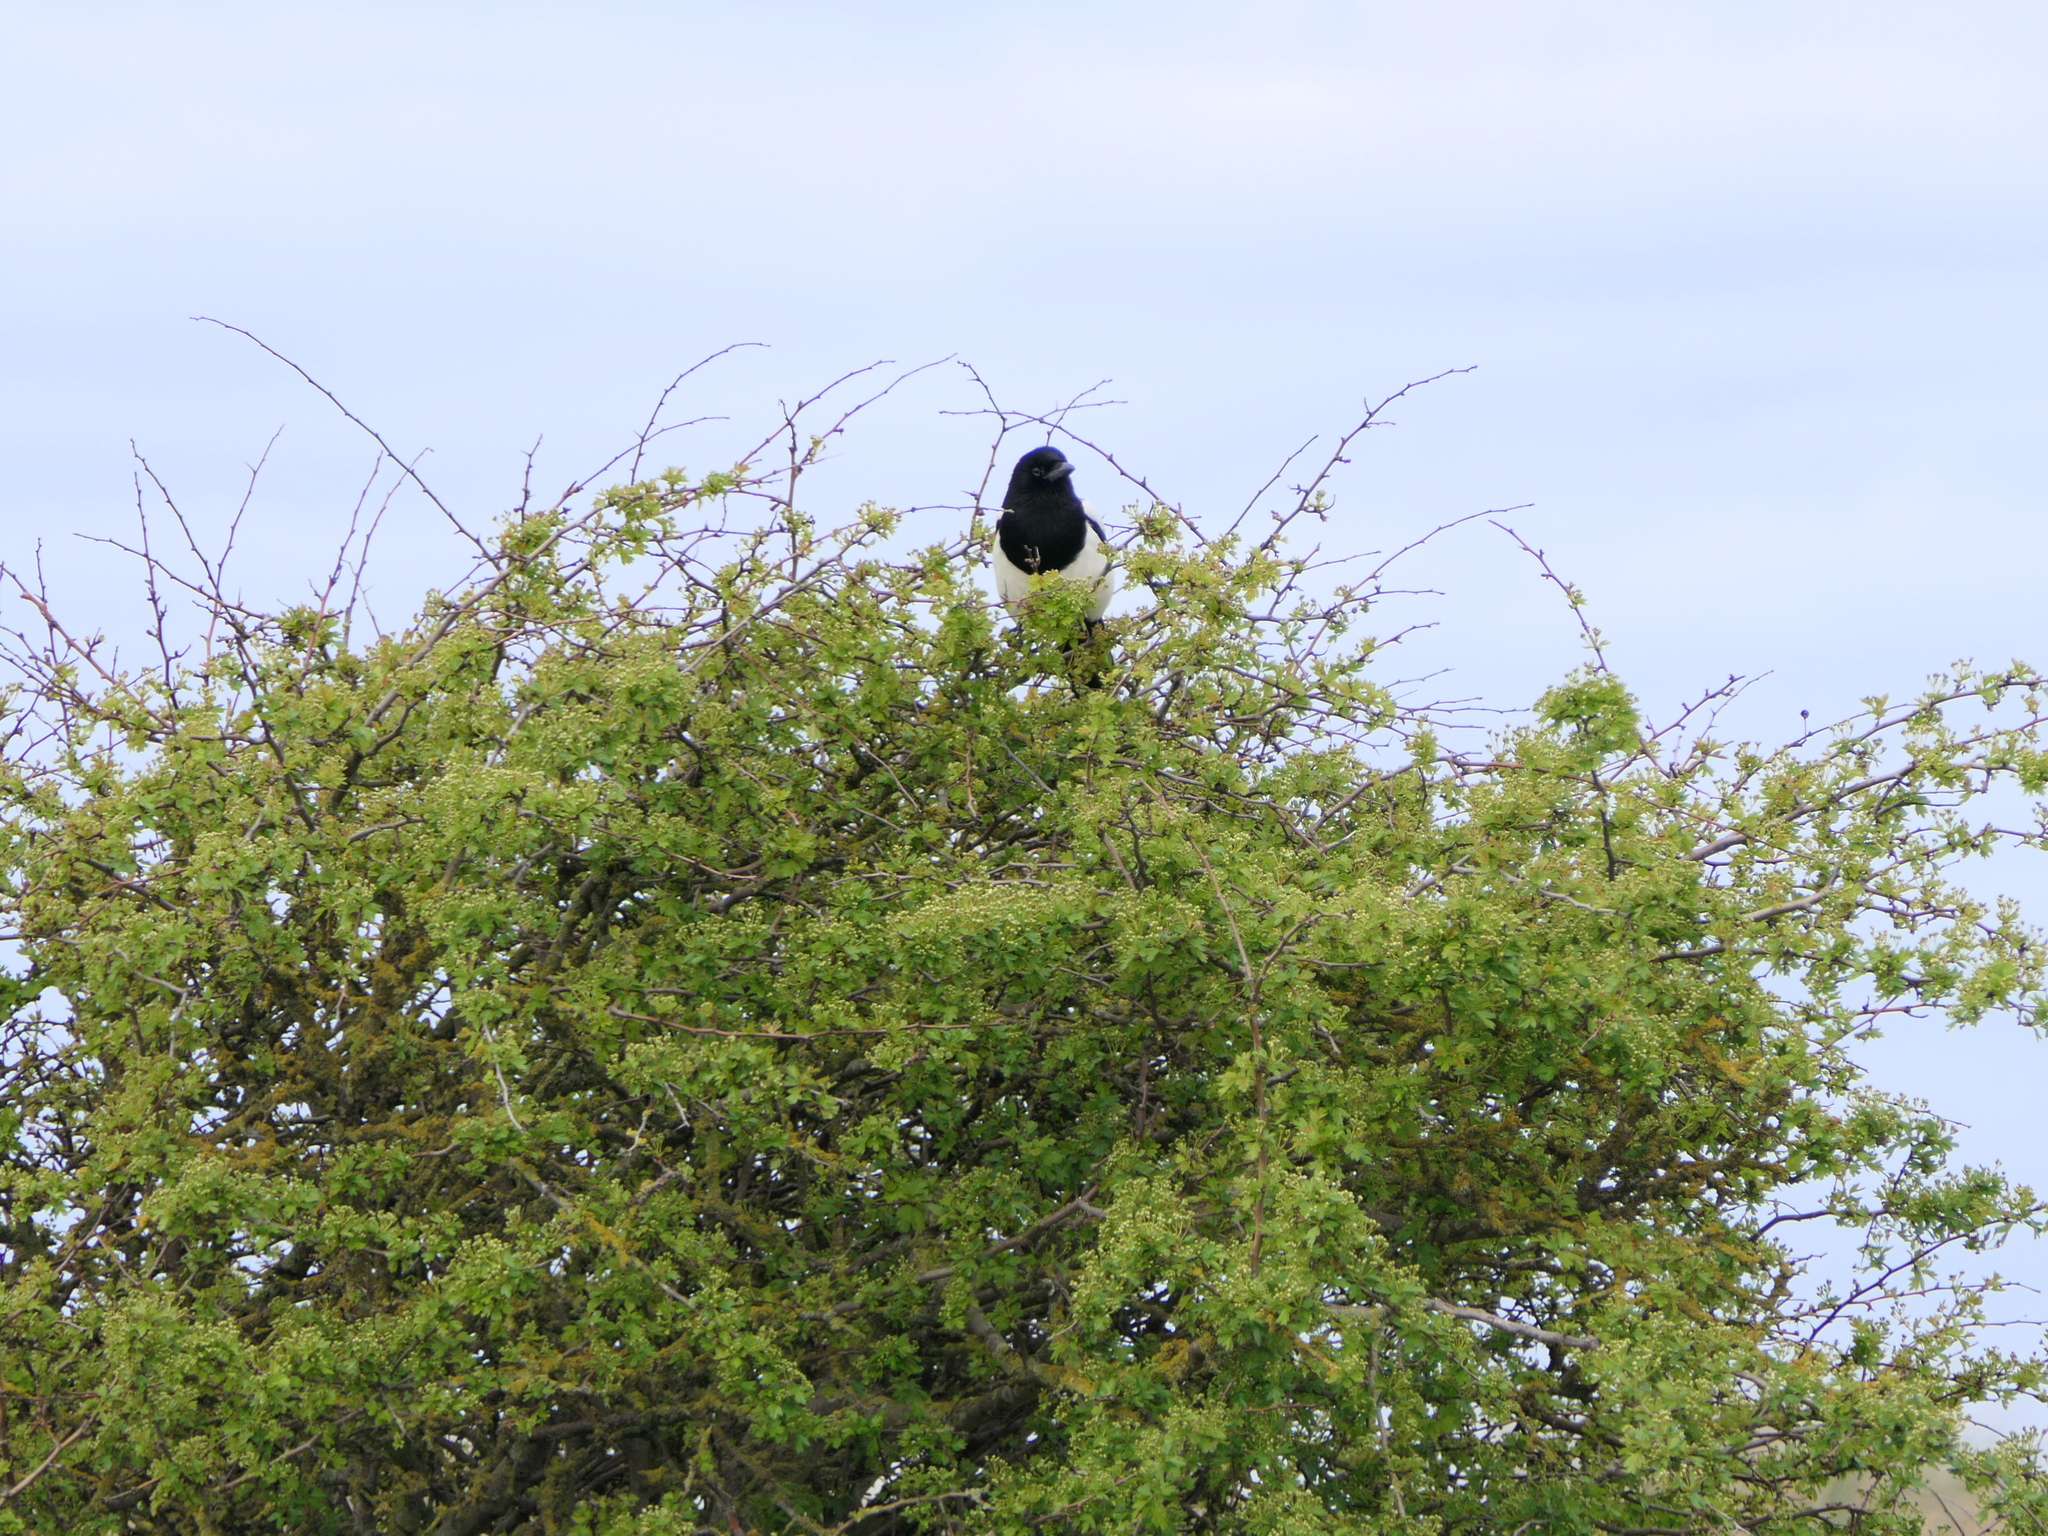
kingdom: Animalia
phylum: Chordata
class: Aves
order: Passeriformes
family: Corvidae
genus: Pica
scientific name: Pica pica
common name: Eurasian magpie
